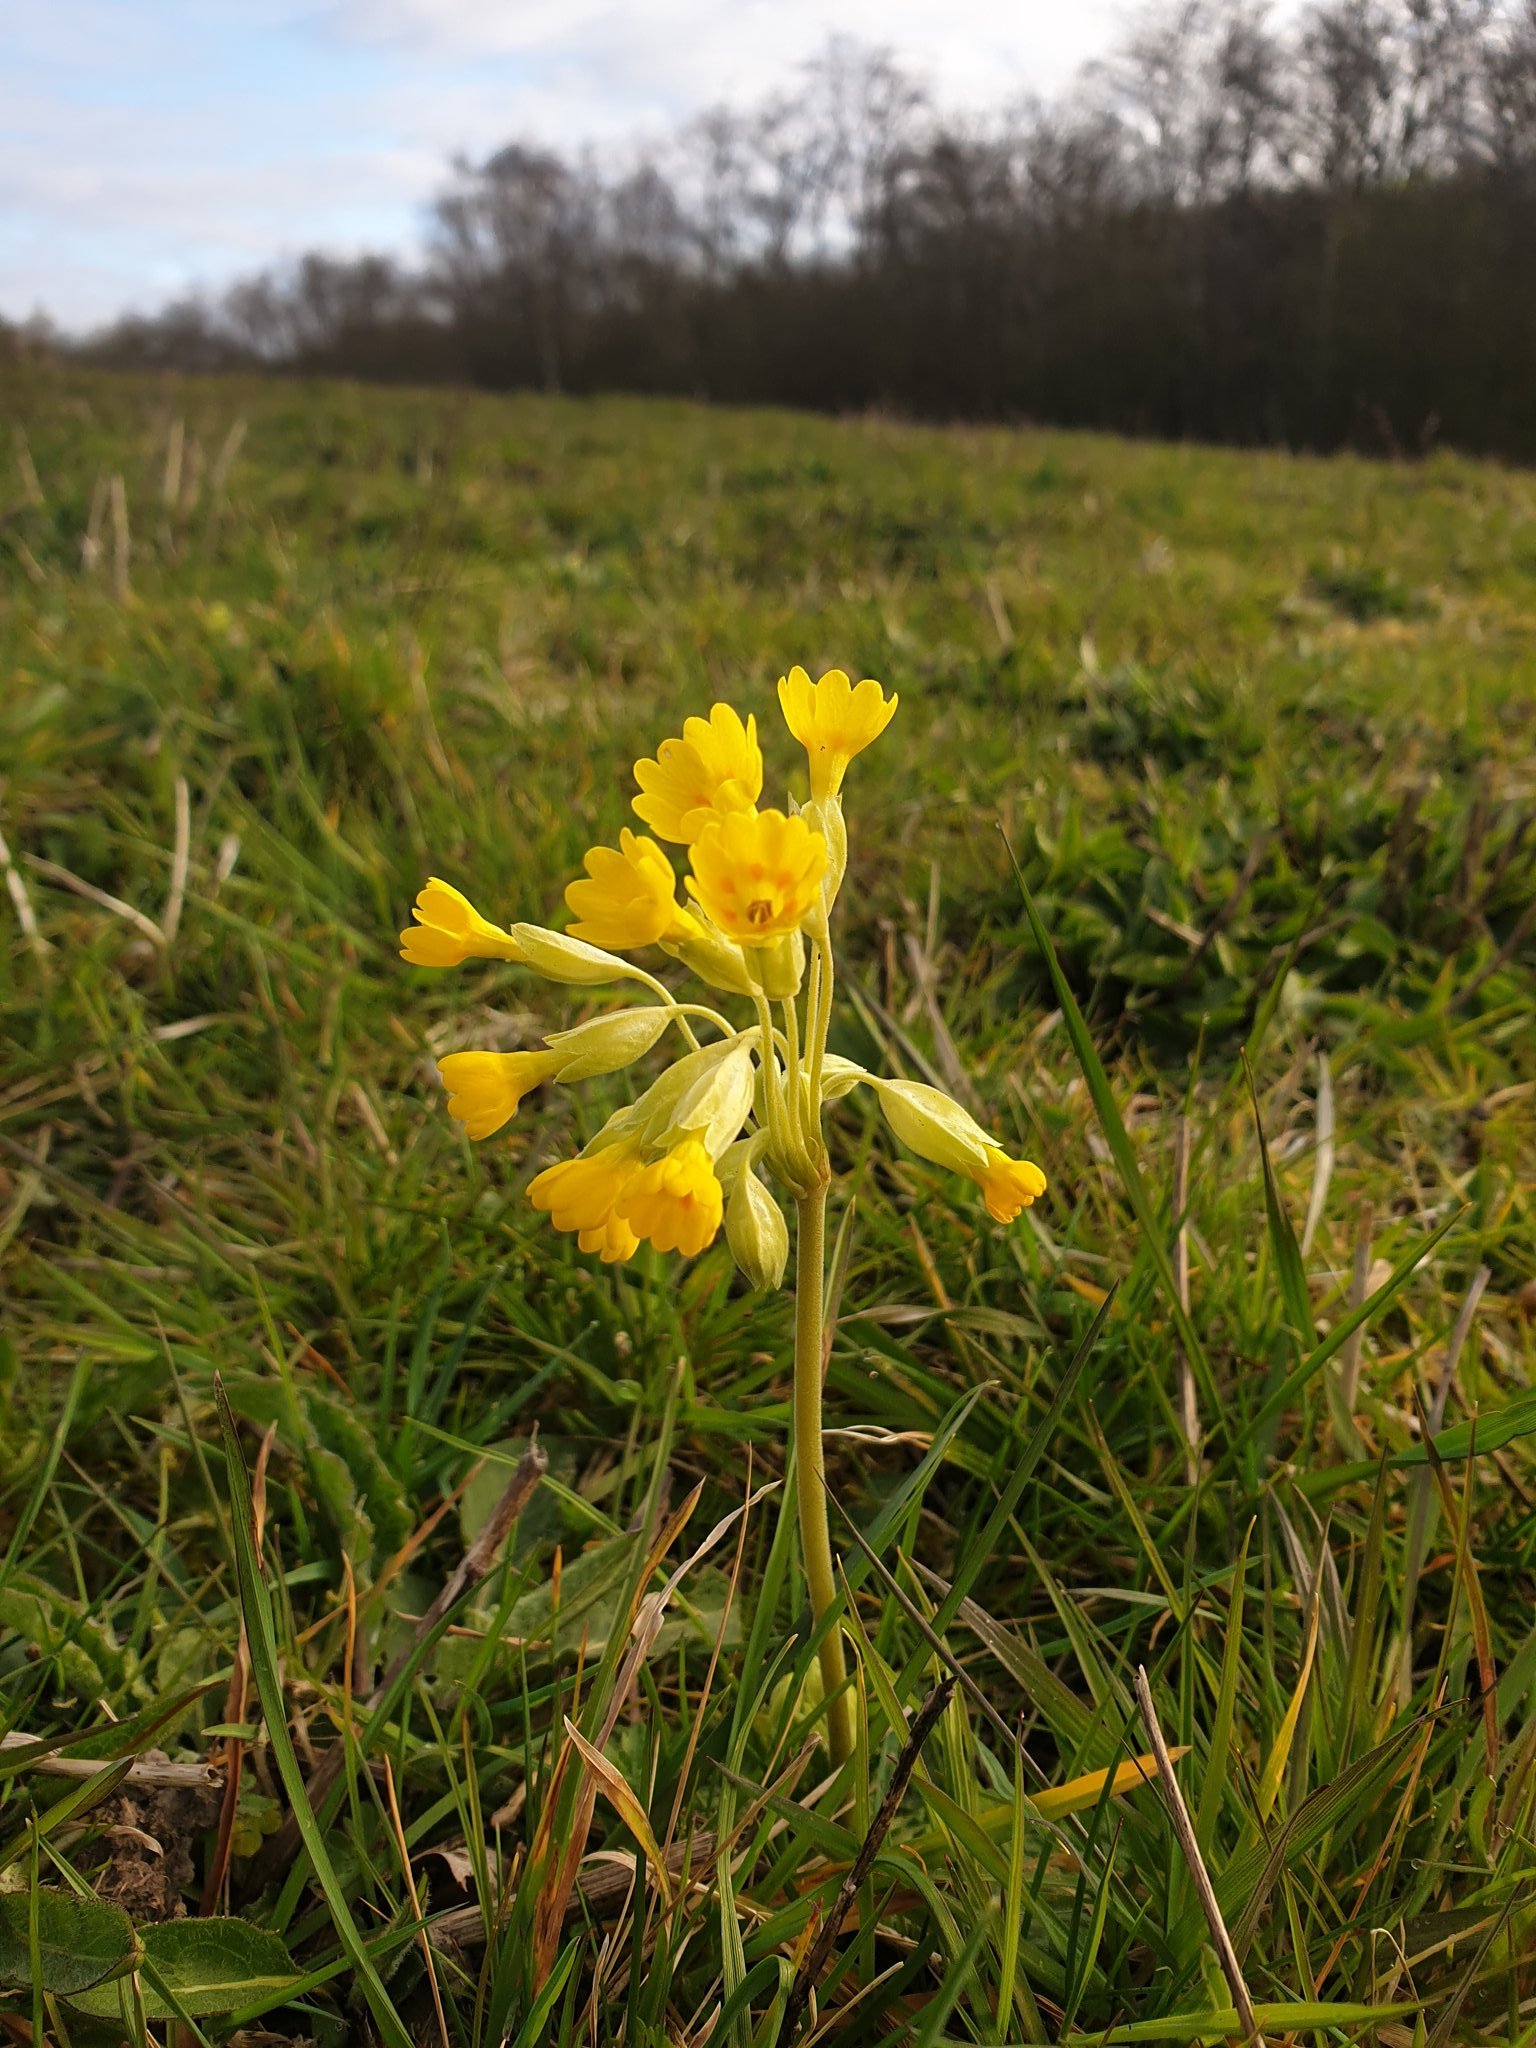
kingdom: Plantae
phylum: Tracheophyta
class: Magnoliopsida
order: Ericales
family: Primulaceae
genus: Primula
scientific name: Primula veris
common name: Cowslip
